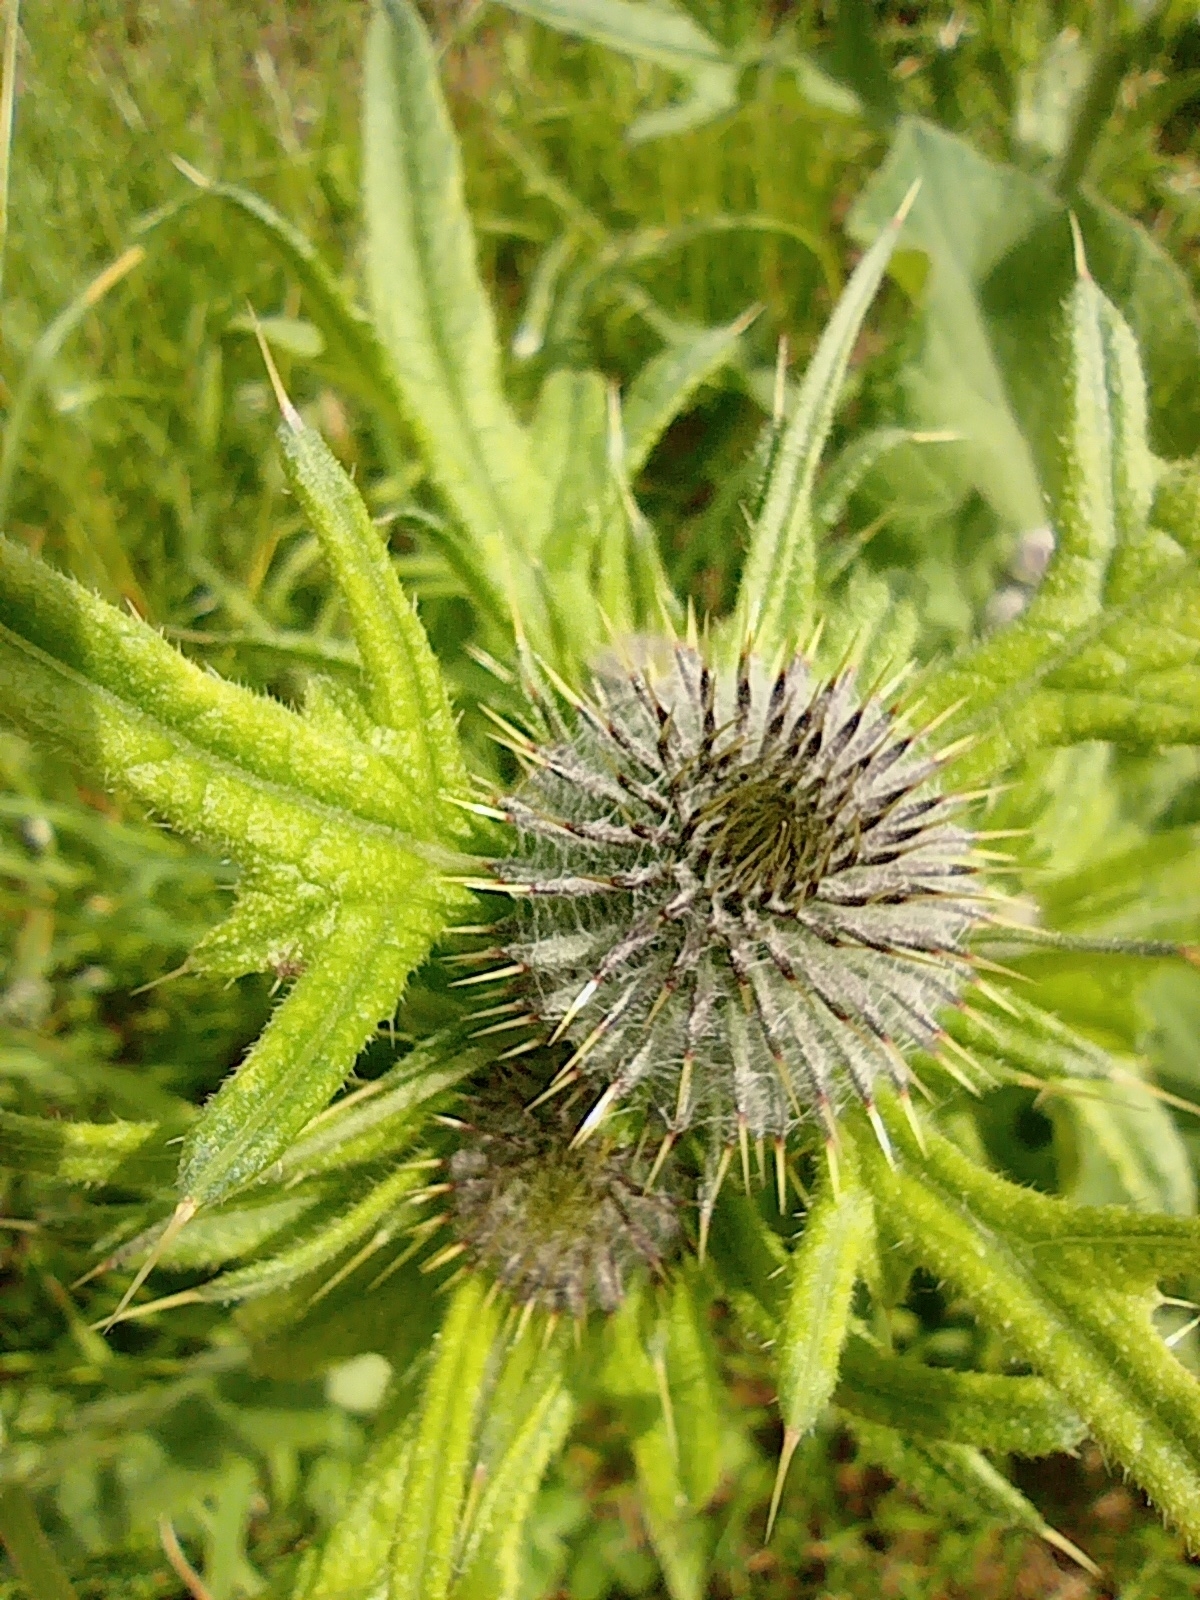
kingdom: Plantae
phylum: Tracheophyta
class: Magnoliopsida
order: Asterales
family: Asteraceae
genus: Cirsium
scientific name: Cirsium vulgare
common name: Bull thistle
